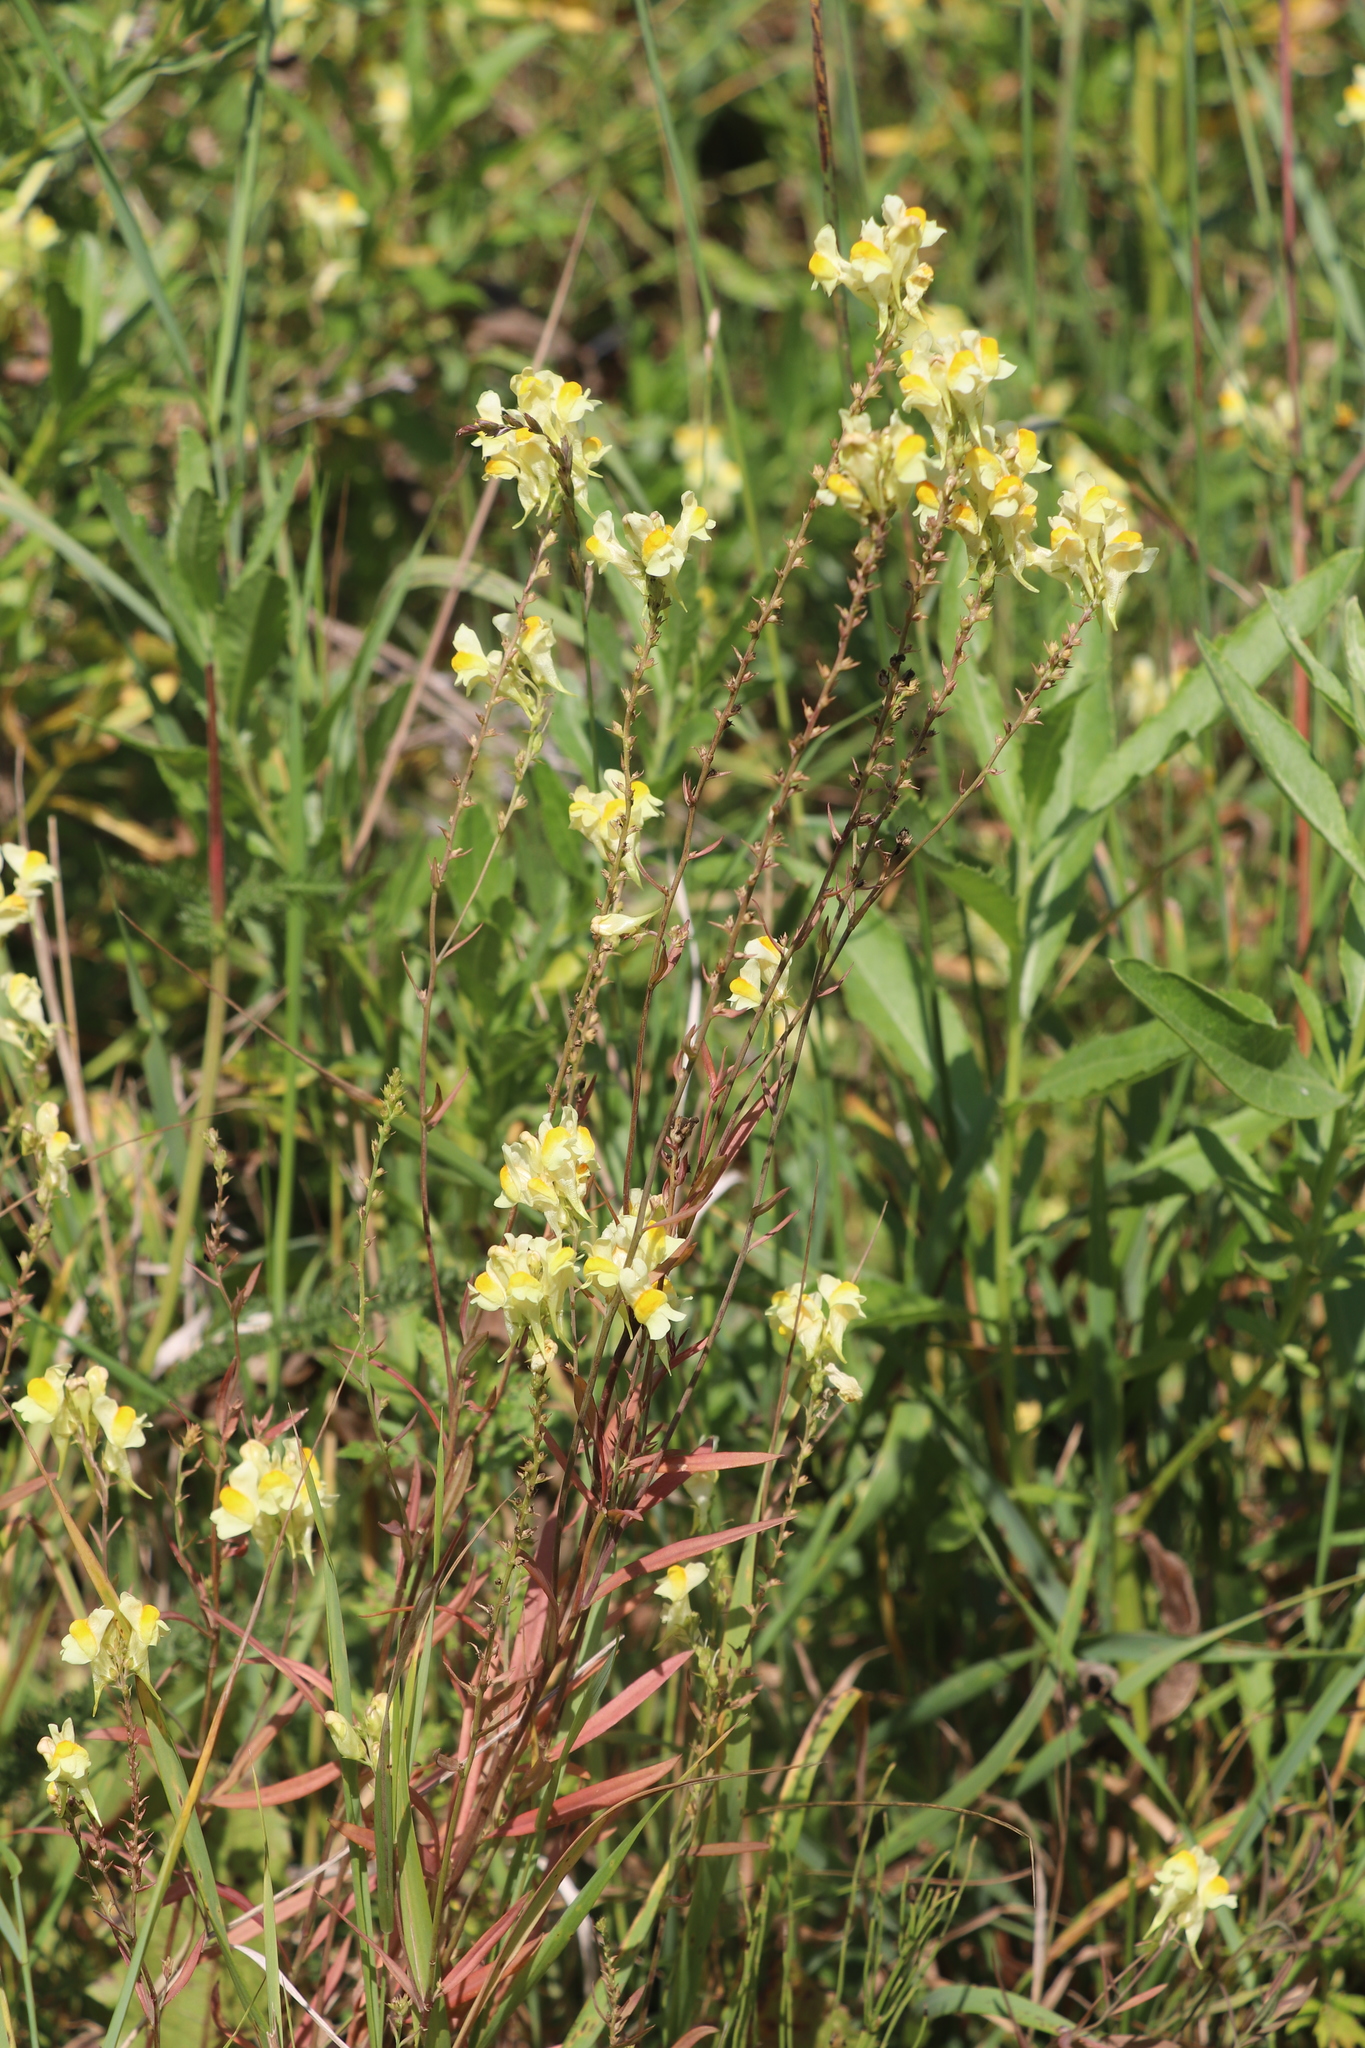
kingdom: Plantae
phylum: Tracheophyta
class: Magnoliopsida
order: Lamiales
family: Plantaginaceae
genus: Linaria
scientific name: Linaria vulgaris
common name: Butter and eggs
